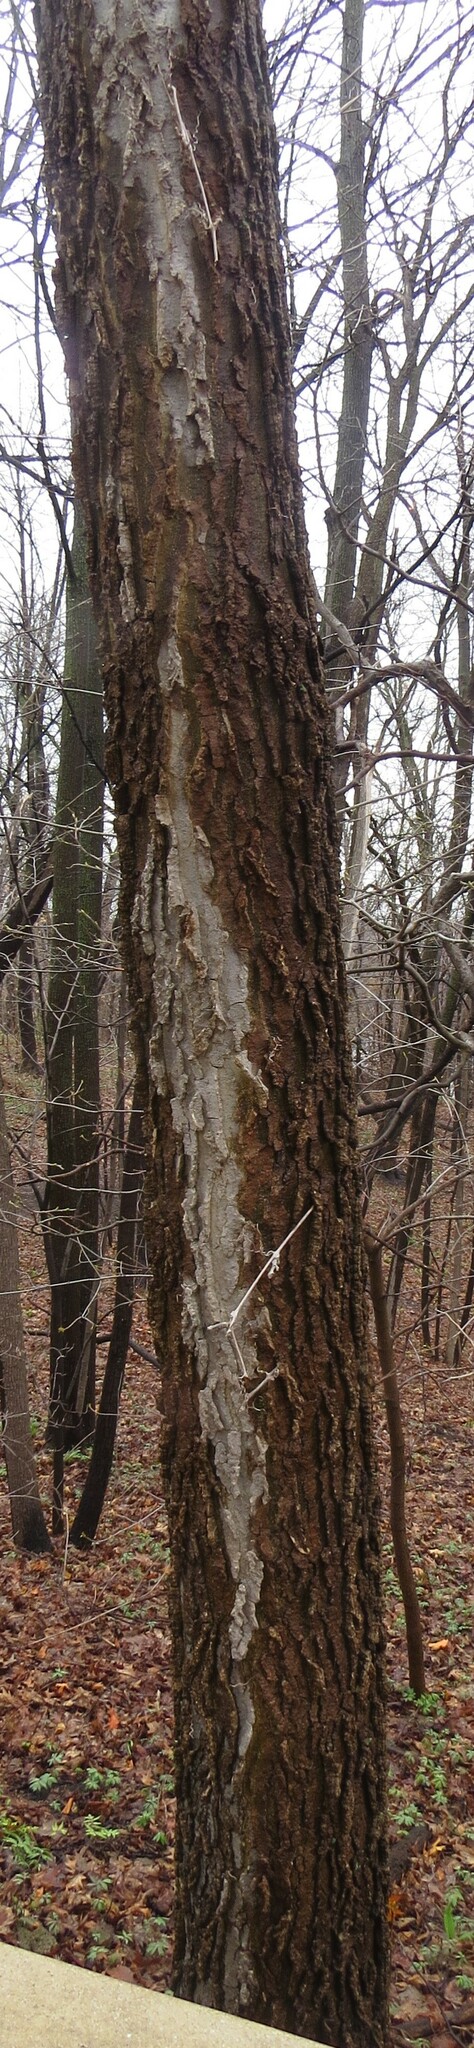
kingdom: Plantae
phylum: Tracheophyta
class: Magnoliopsida
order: Rosales
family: Cannabaceae
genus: Celtis
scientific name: Celtis occidentalis
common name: Common hackberry
